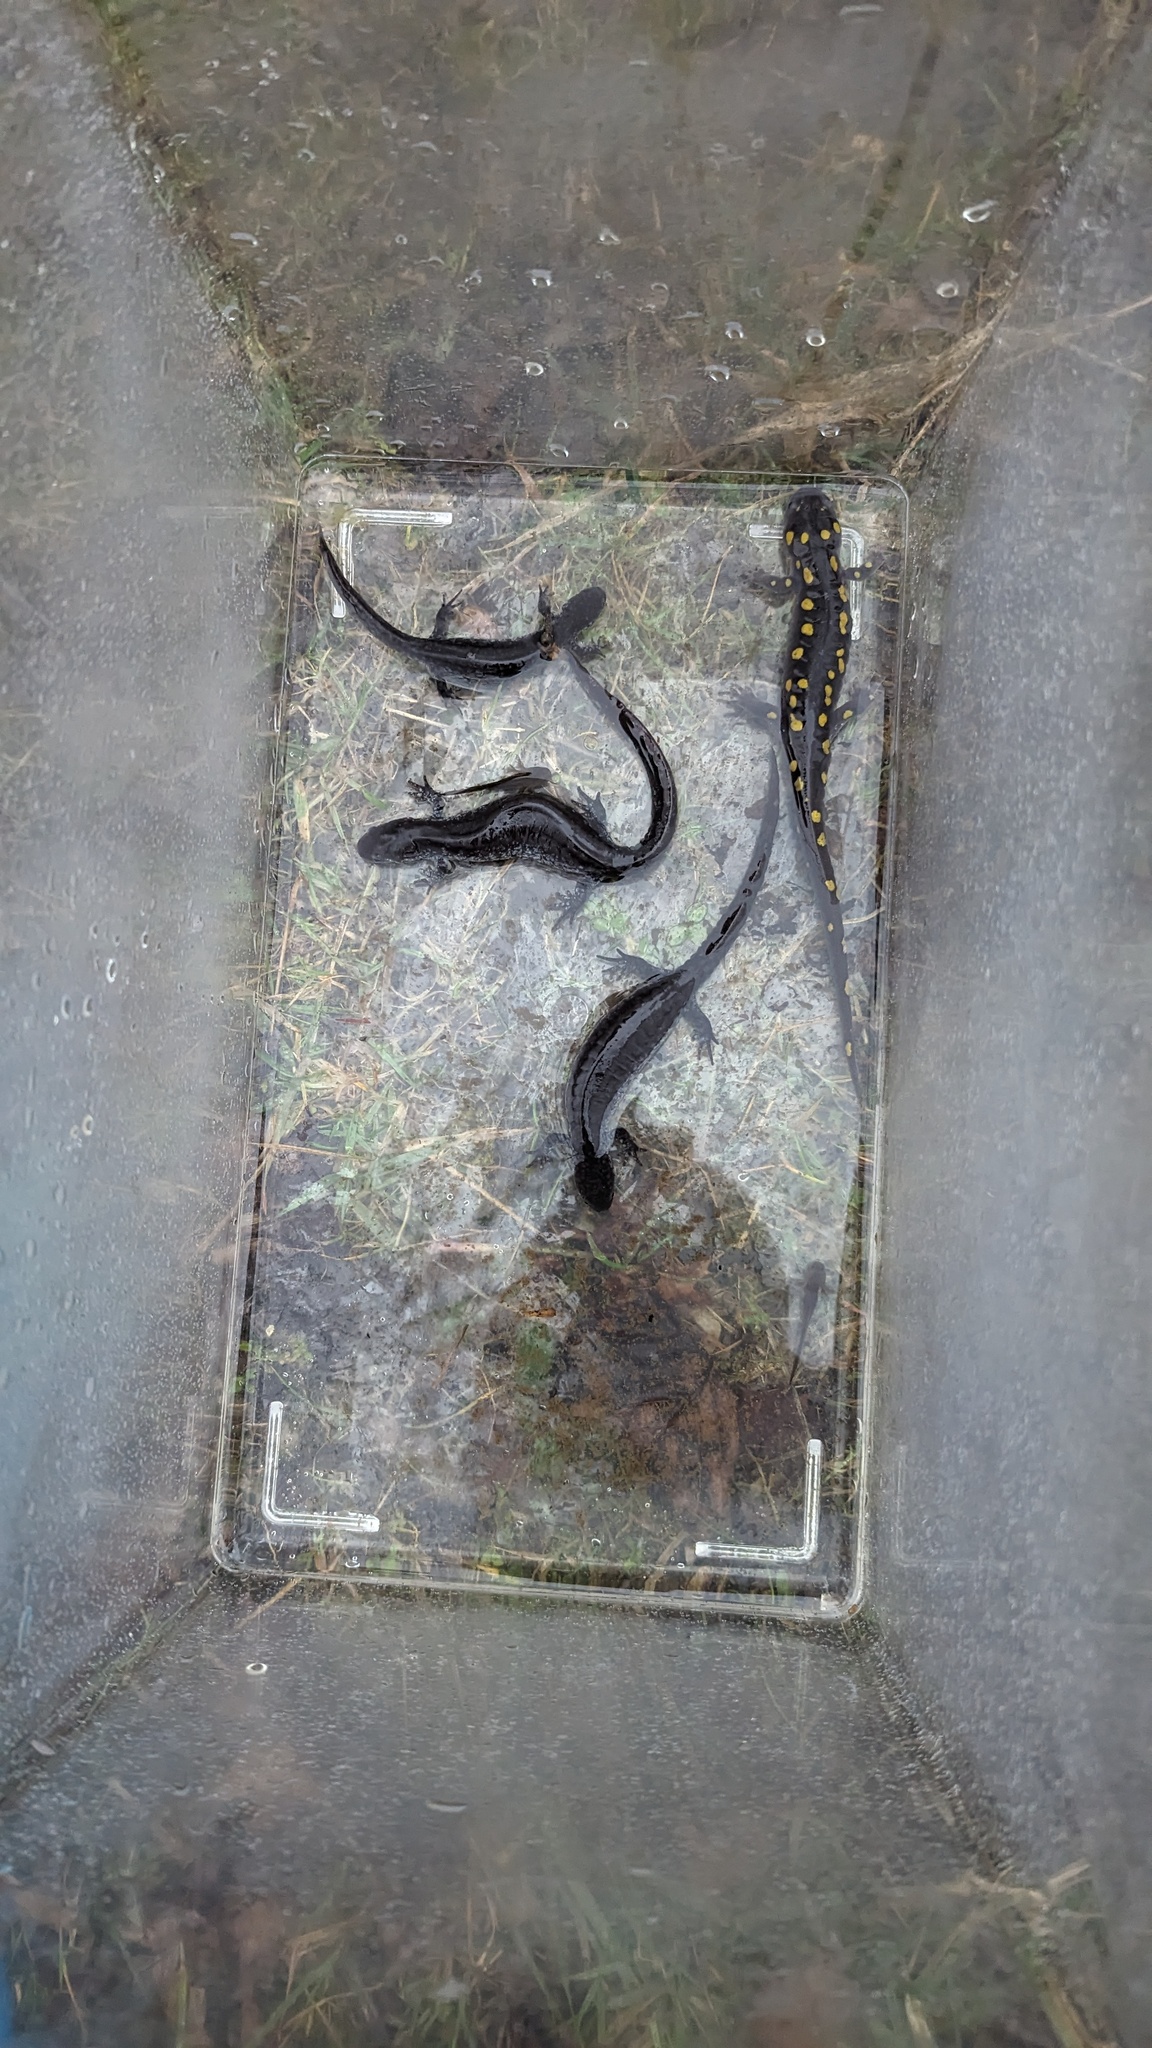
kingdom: Animalia
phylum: Chordata
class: Amphibia
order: Caudata
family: Ambystomatidae
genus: Ambystoma
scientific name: Ambystoma maculatum
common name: Spotted salamander
